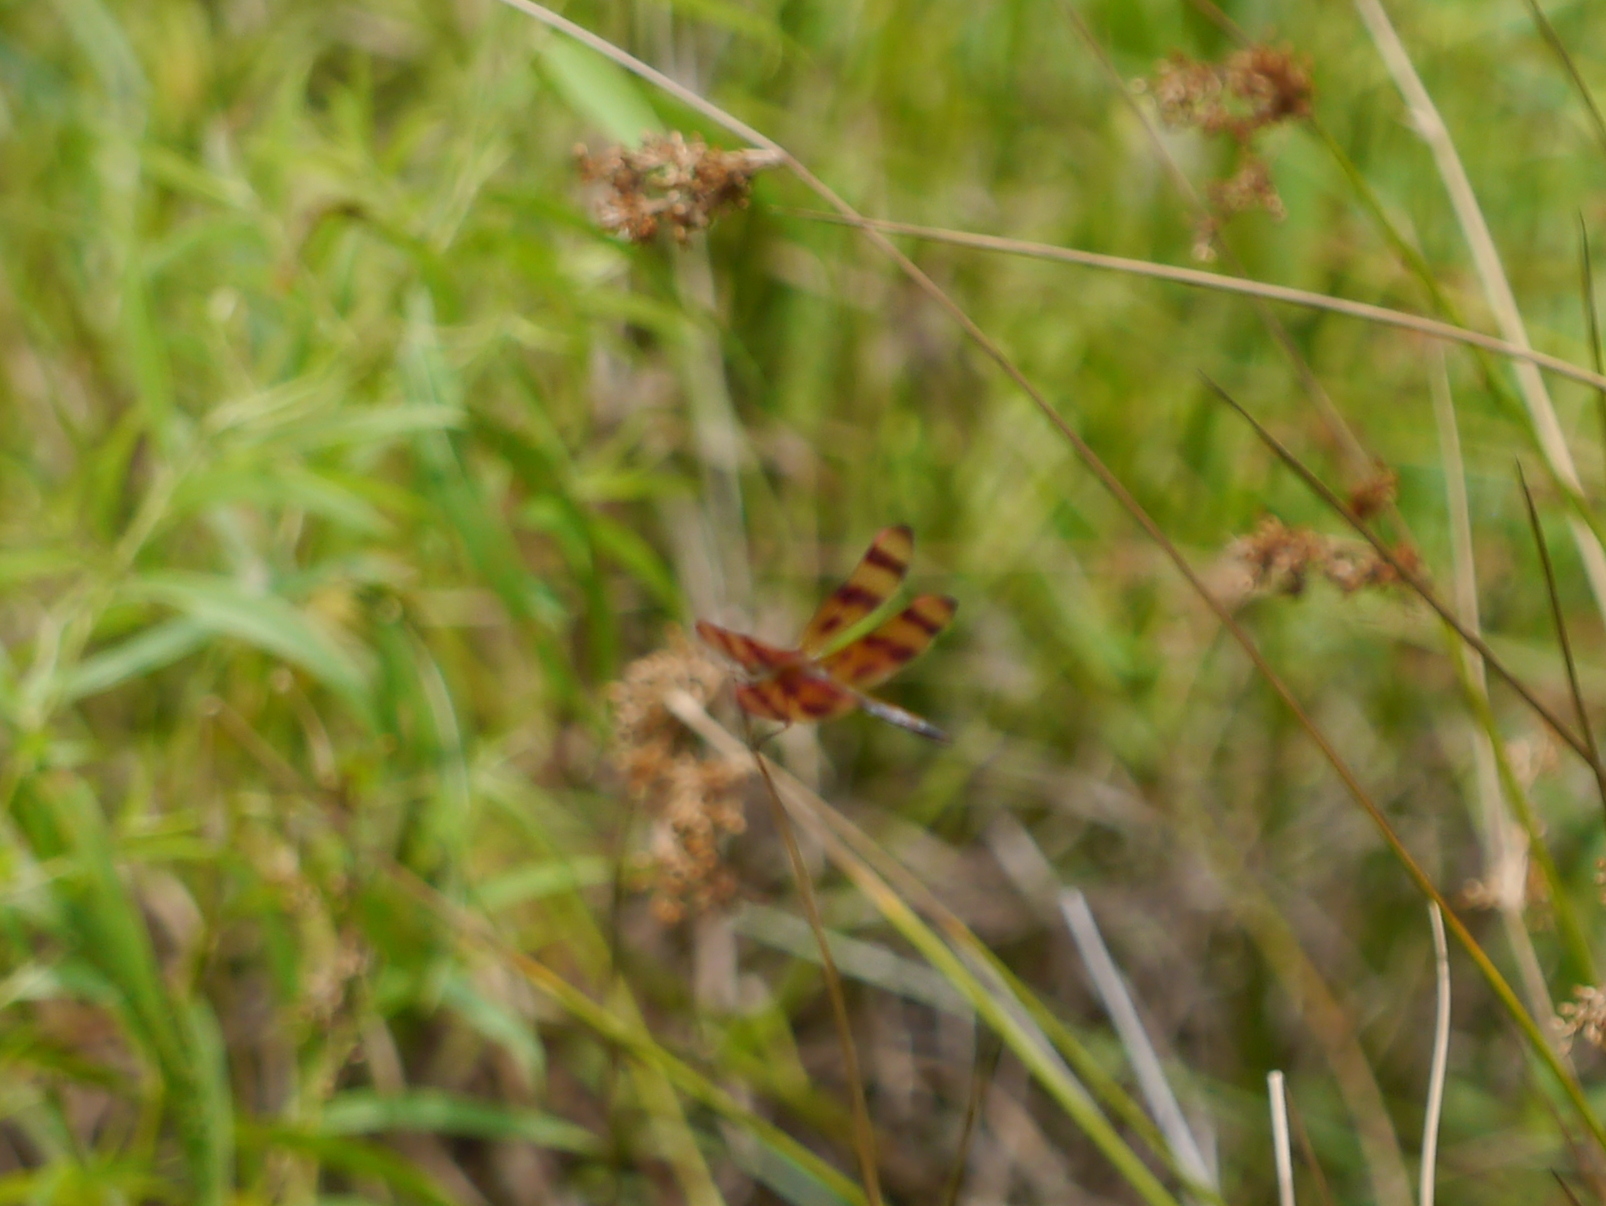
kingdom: Animalia
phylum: Arthropoda
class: Insecta
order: Odonata
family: Libellulidae
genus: Celithemis
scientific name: Celithemis eponina
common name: Halloween pennant
